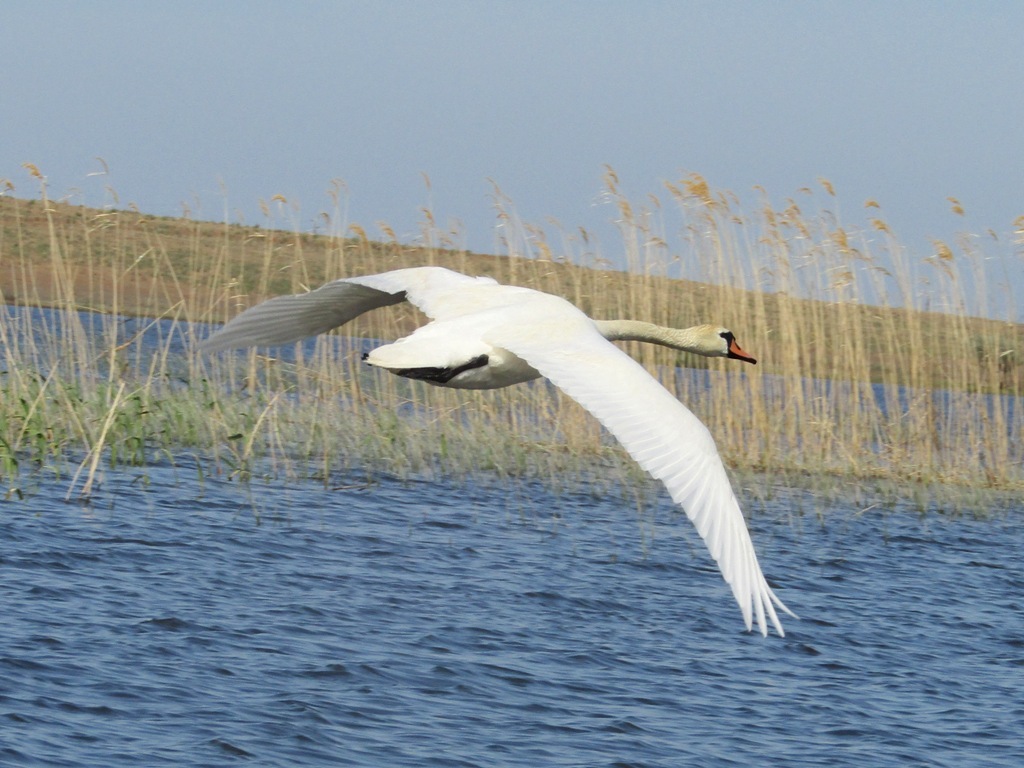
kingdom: Animalia
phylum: Chordata
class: Aves
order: Anseriformes
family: Anatidae
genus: Cygnus
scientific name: Cygnus olor
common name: Mute swan
